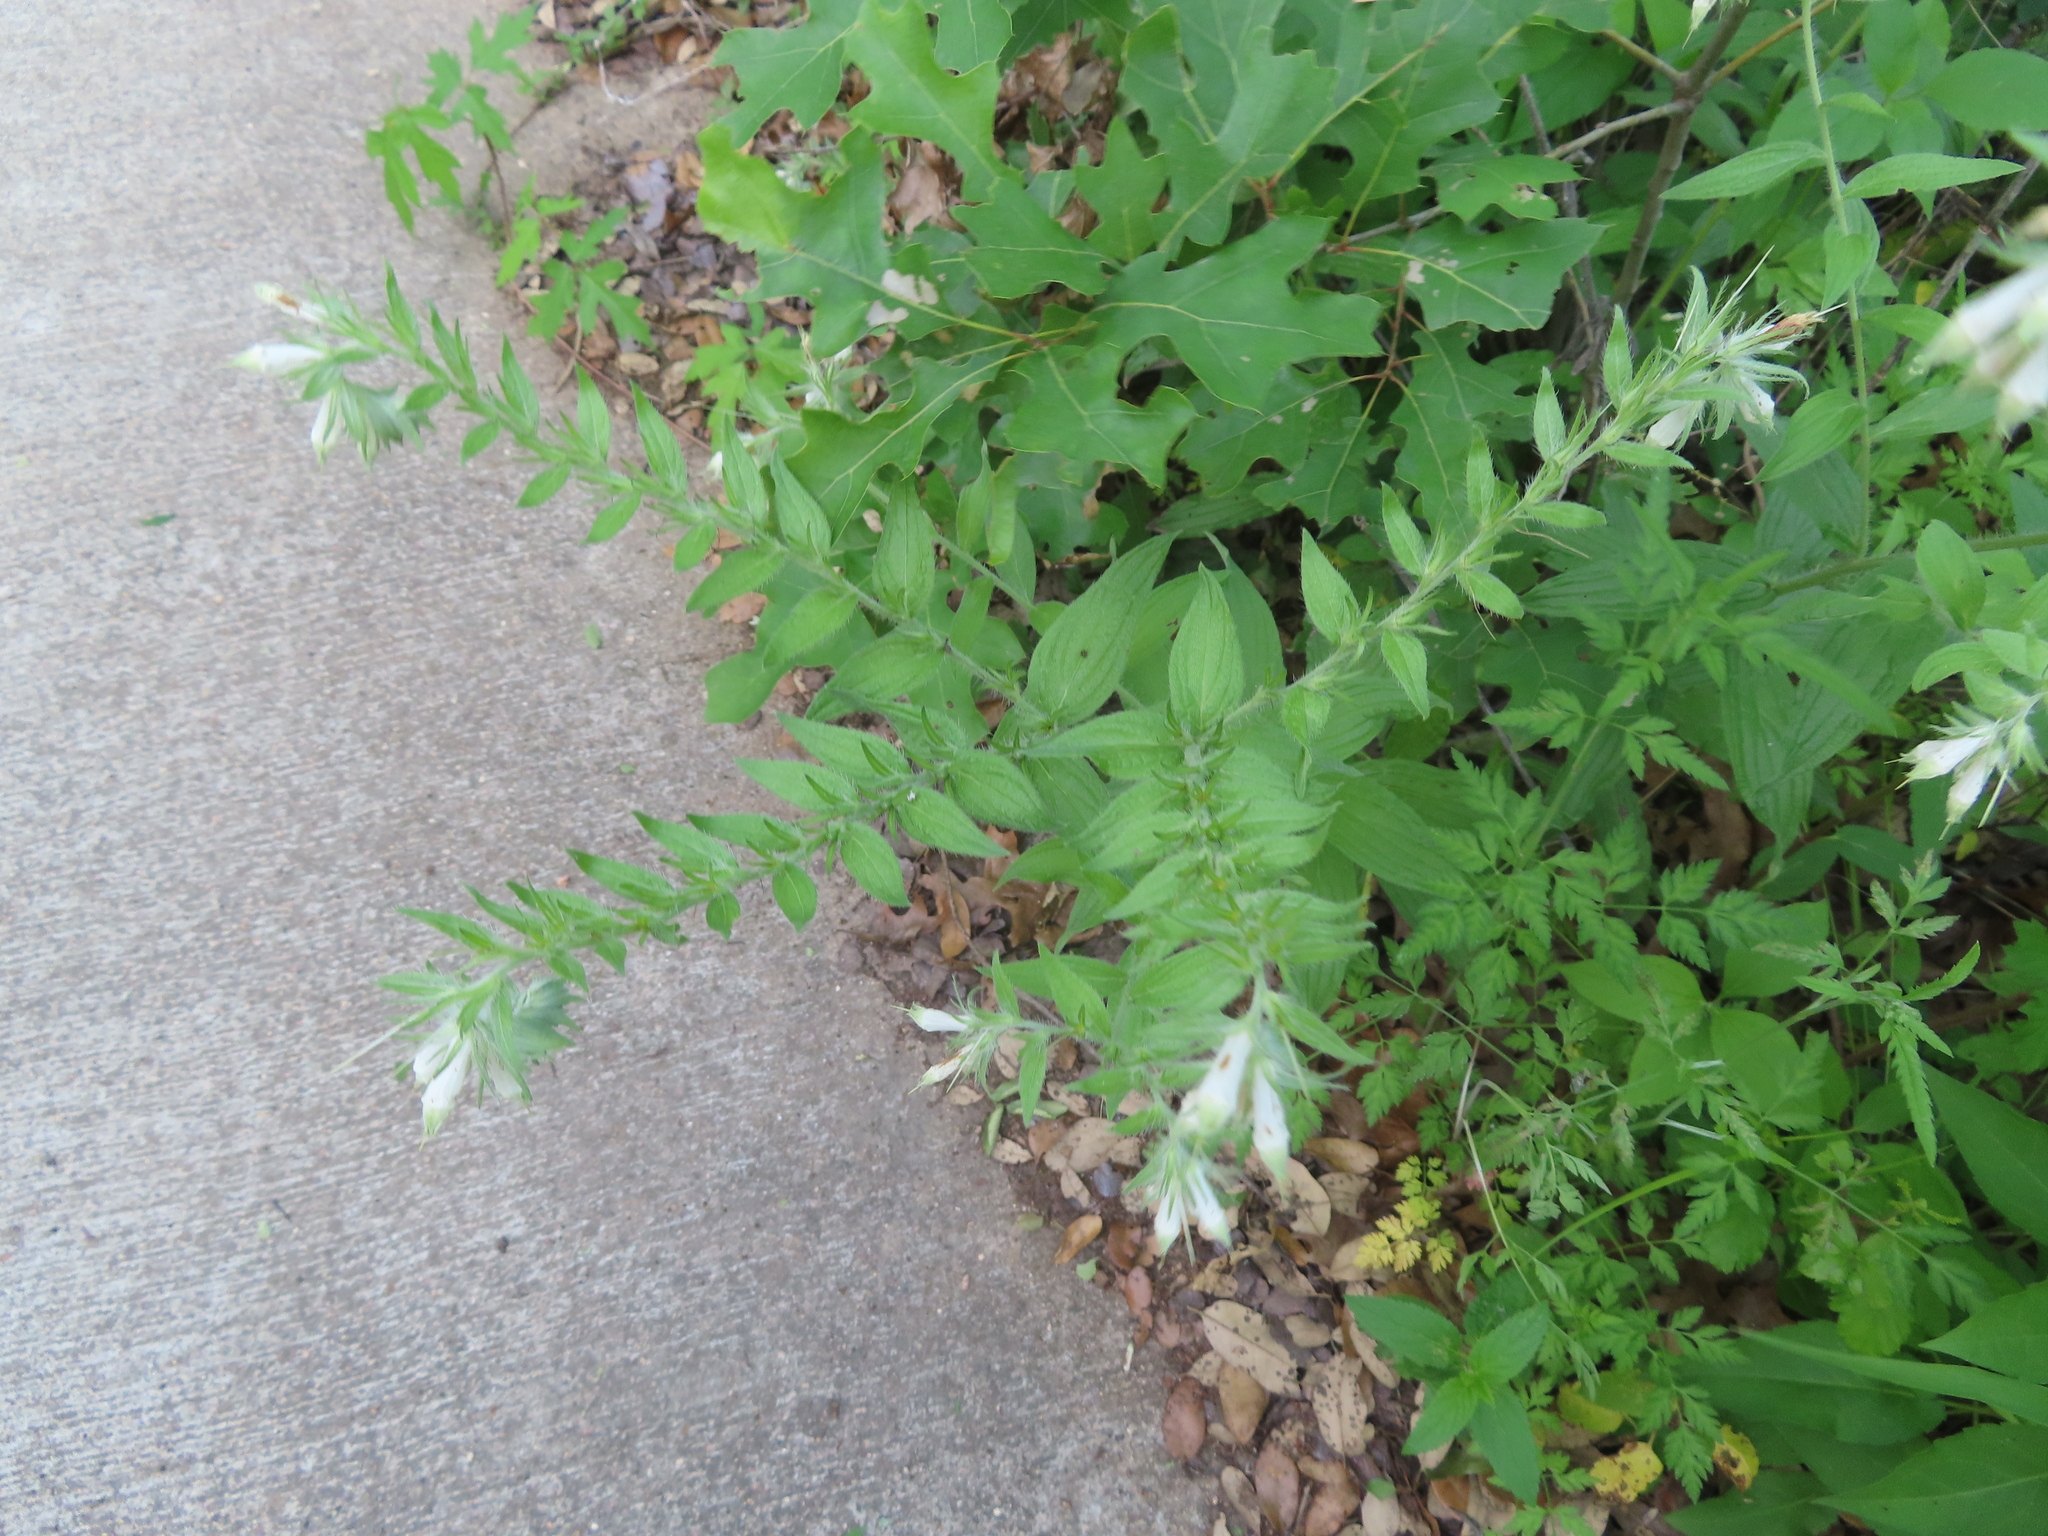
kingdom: Plantae
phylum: Tracheophyta
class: Magnoliopsida
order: Boraginales
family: Boraginaceae
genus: Lithospermum
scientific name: Lithospermum caroliniense
